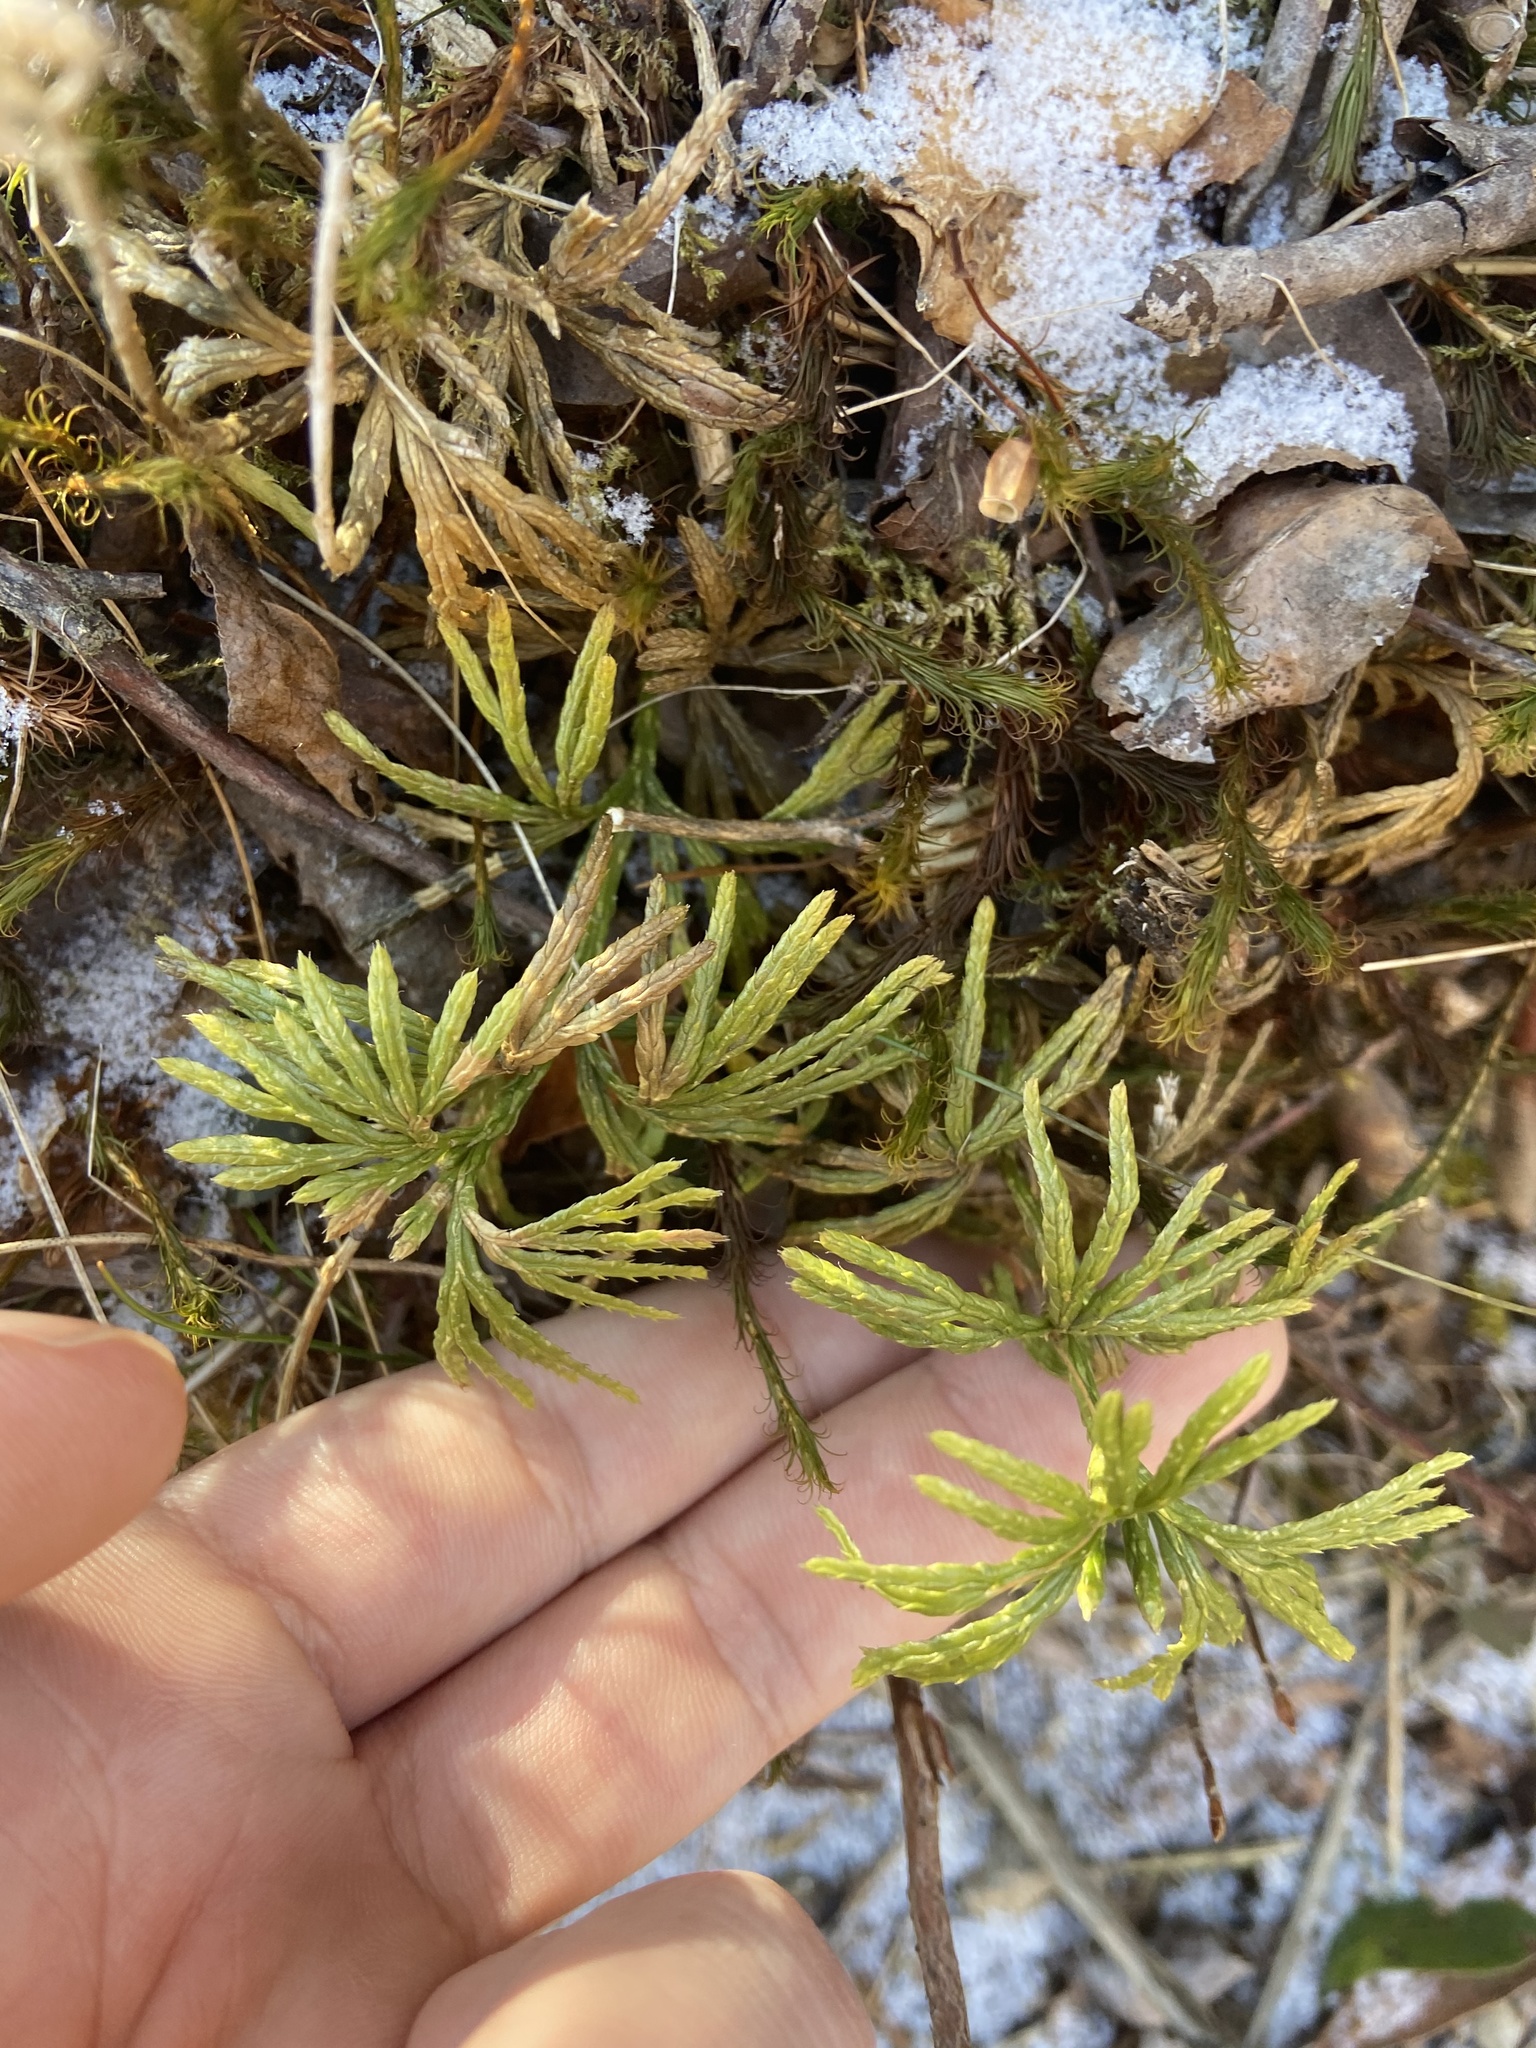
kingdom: Plantae
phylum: Tracheophyta
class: Lycopodiopsida
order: Lycopodiales
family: Lycopodiaceae
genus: Diphasiastrum
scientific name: Diphasiastrum digitatum
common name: Southern running-pine
